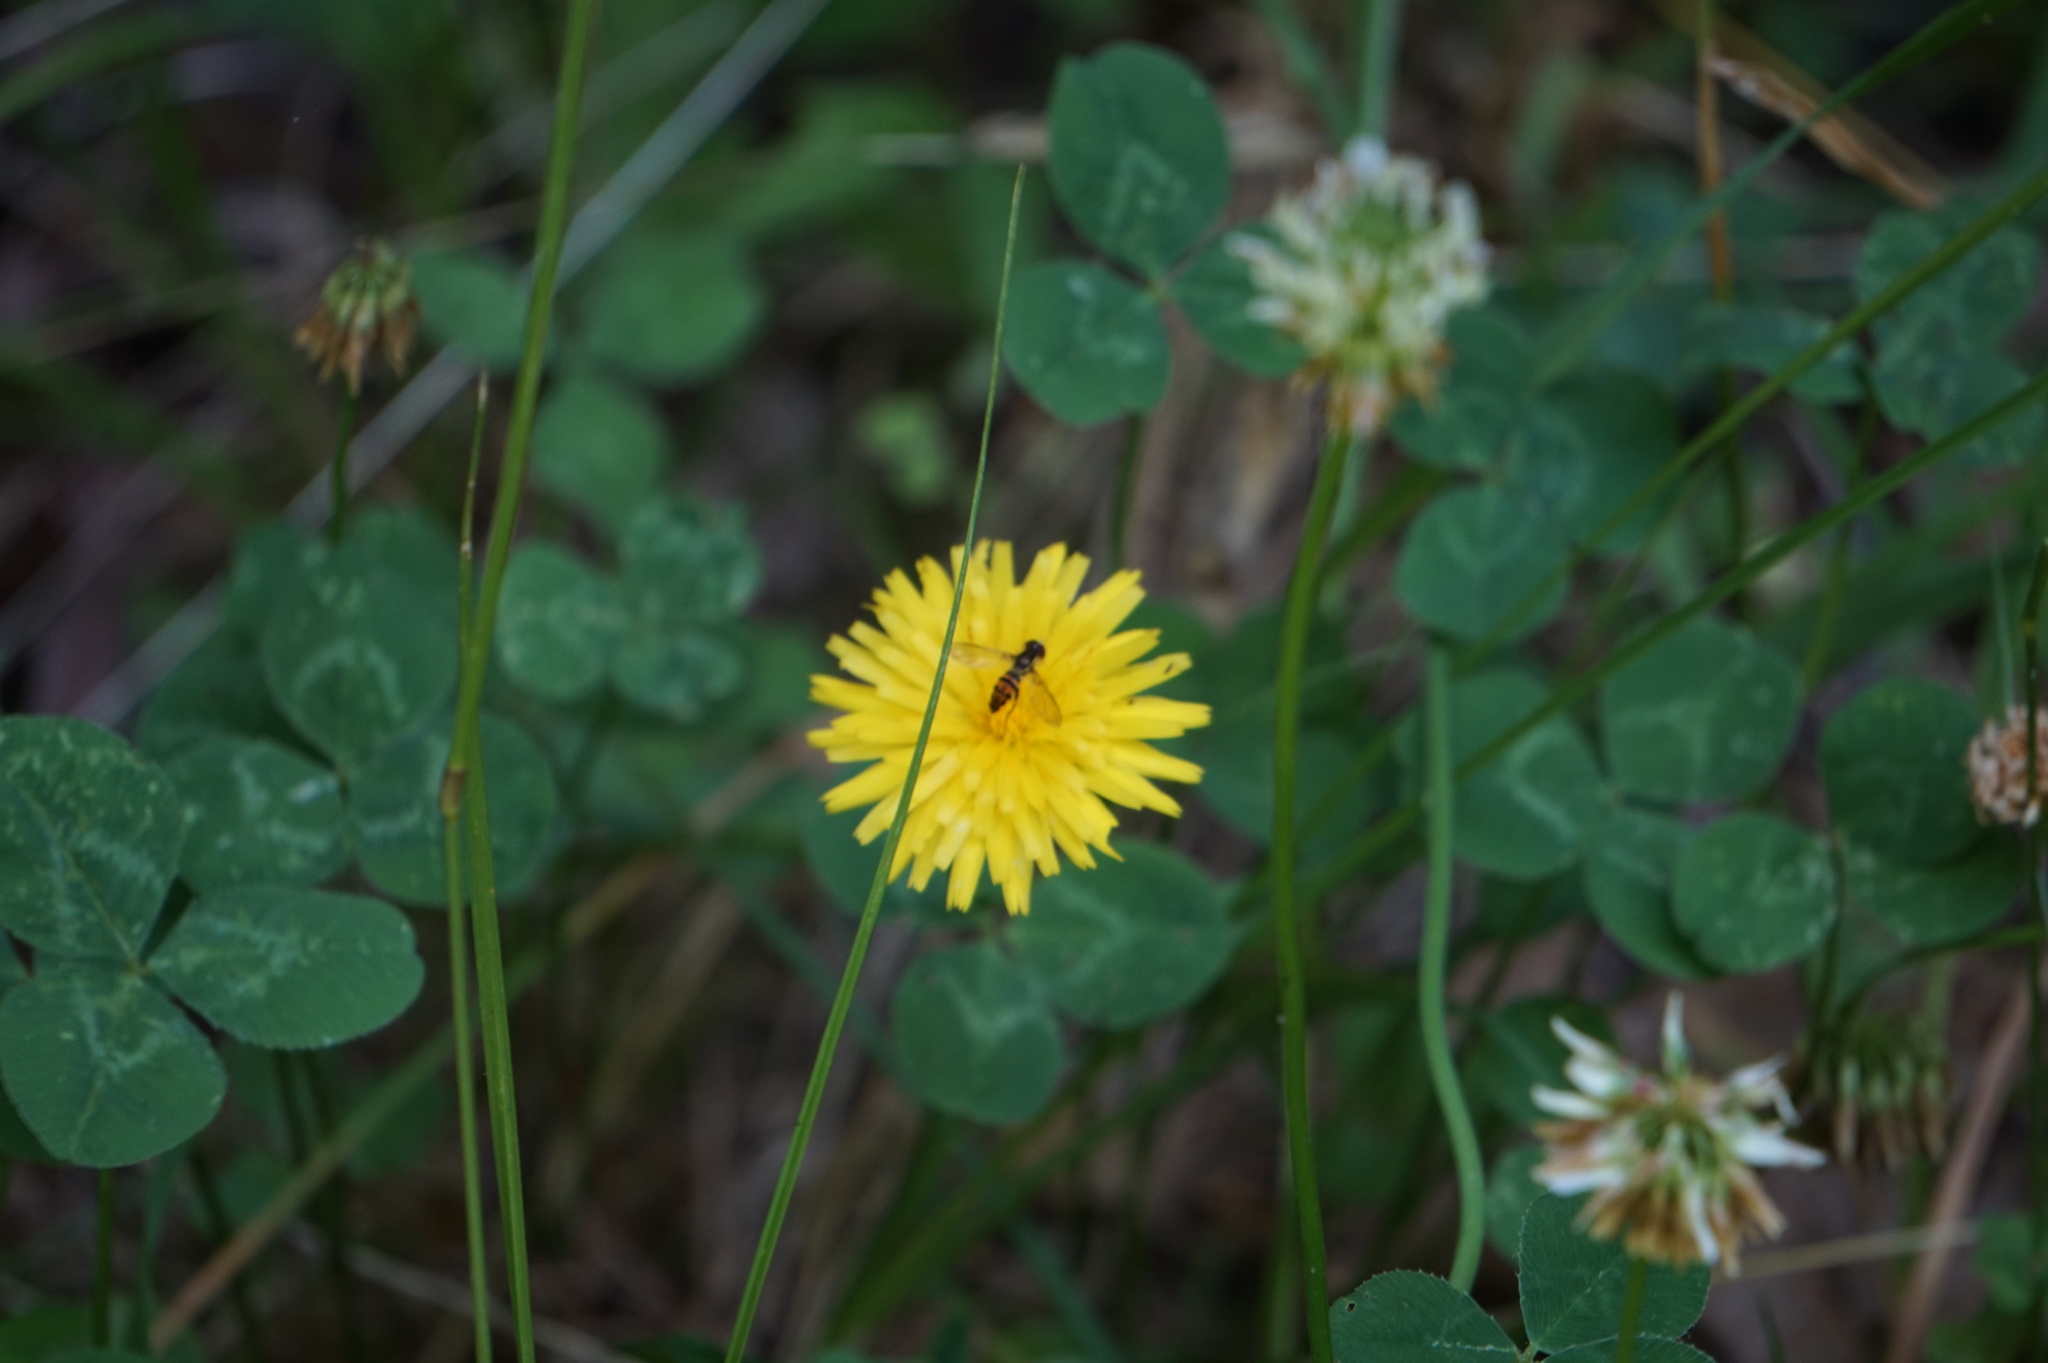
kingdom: Animalia
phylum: Arthropoda
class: Insecta
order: Diptera
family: Syrphidae
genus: Toxomerus
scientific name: Toxomerus geminatus
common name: Eastern calligrapher
